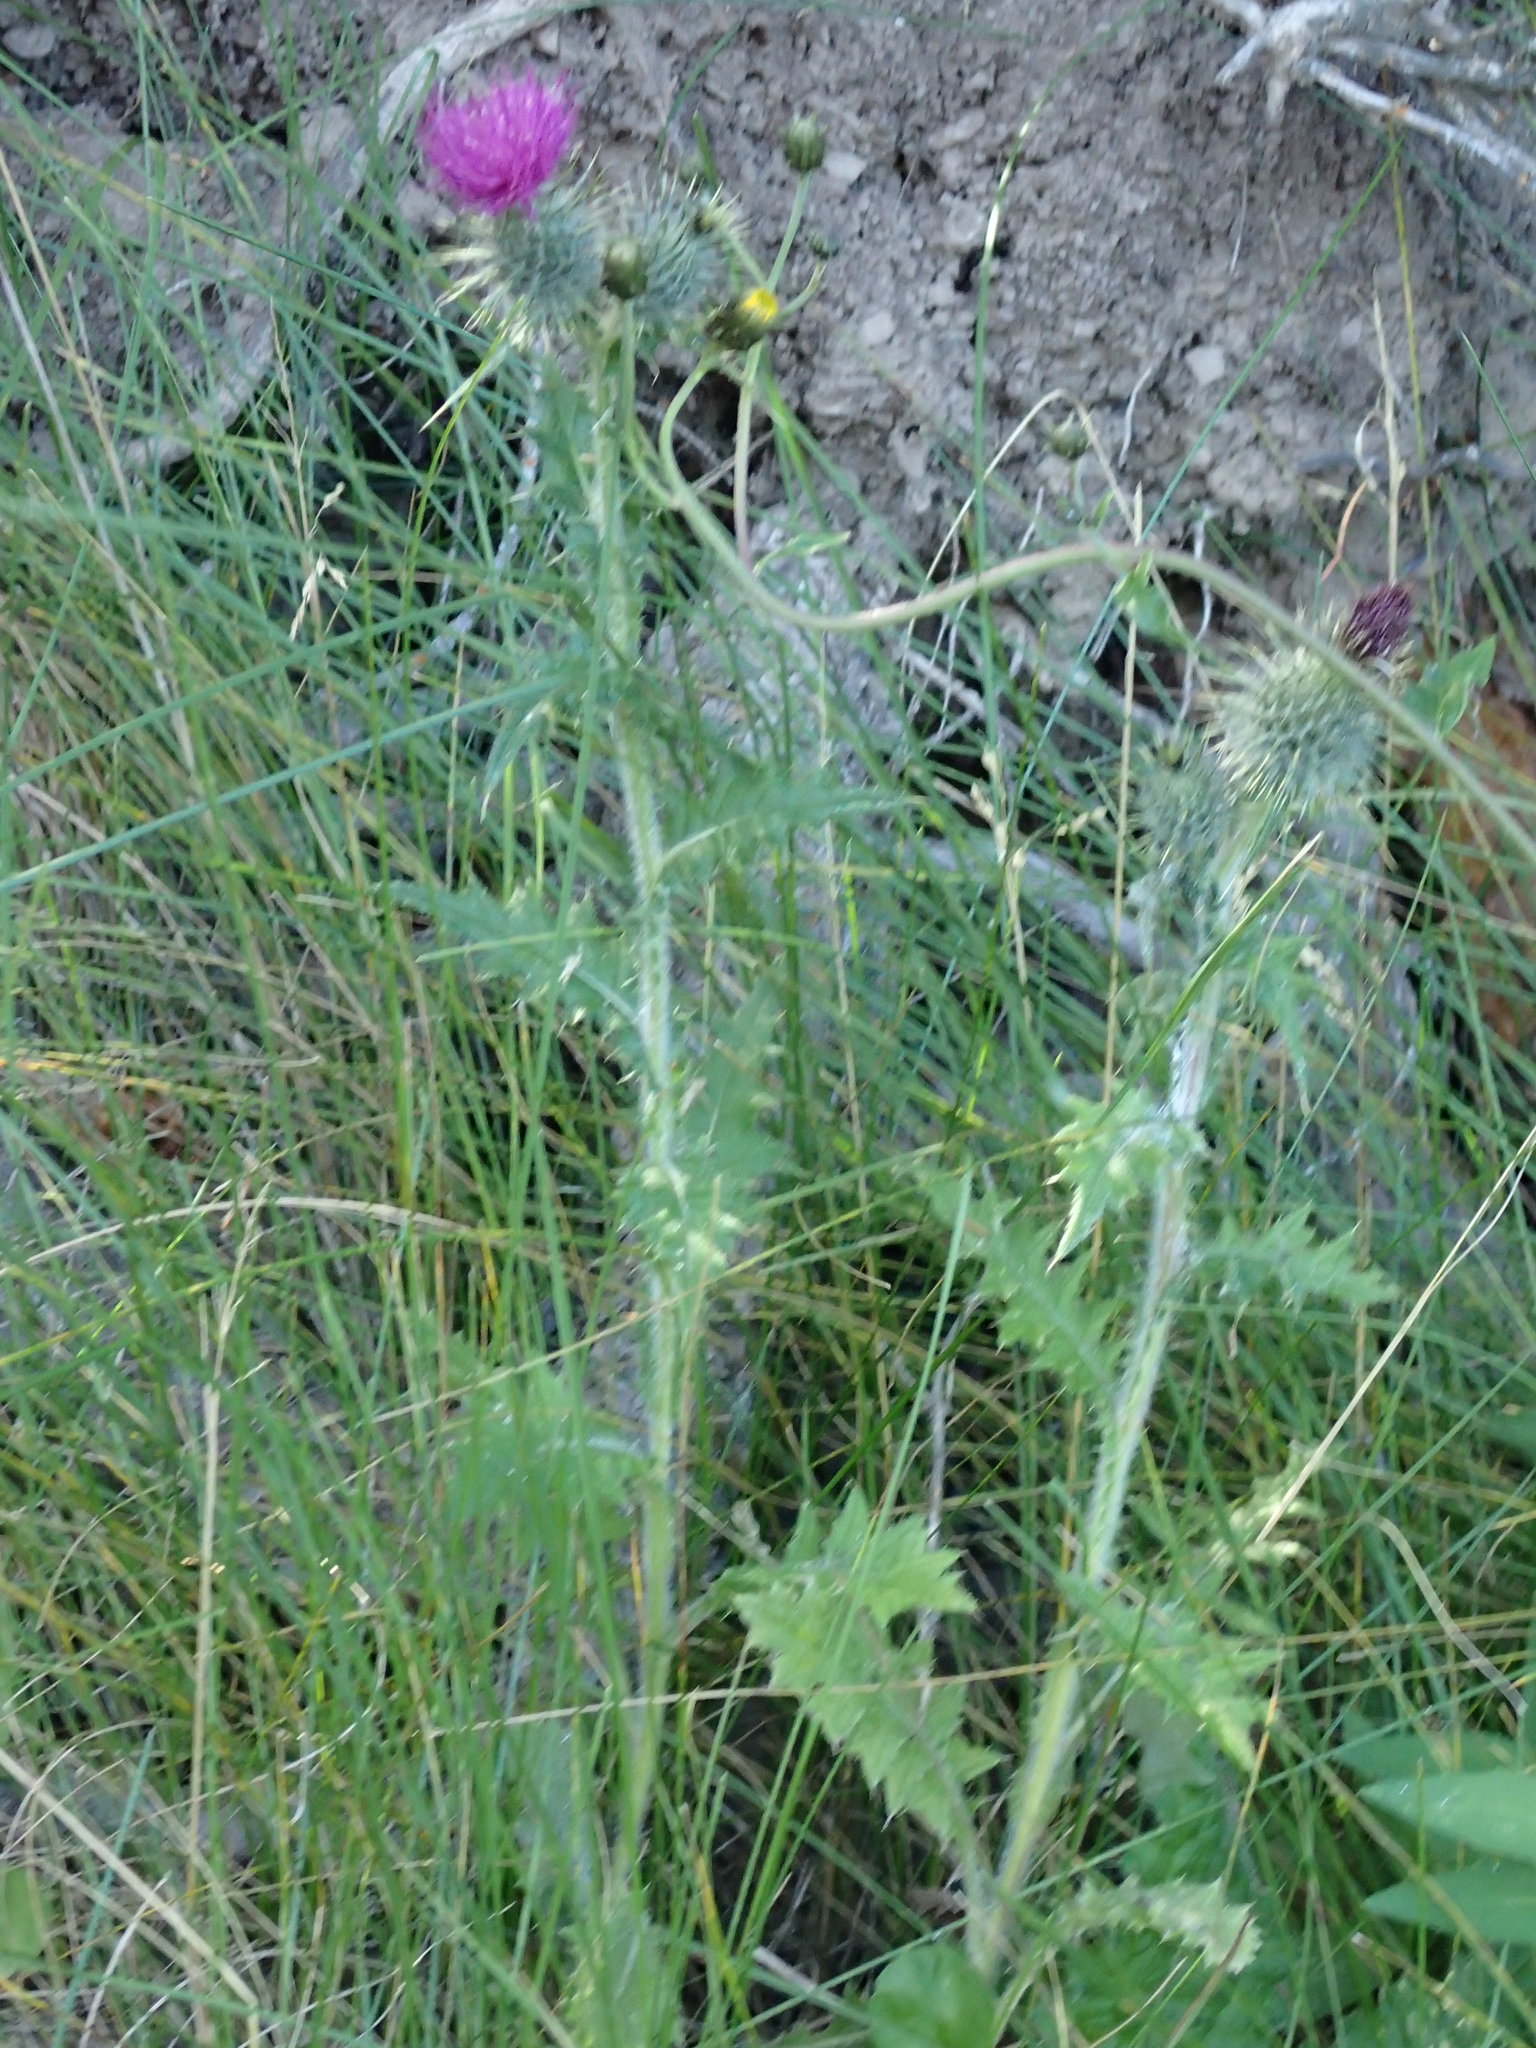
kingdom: Plantae
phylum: Tracheophyta
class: Magnoliopsida
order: Asterales
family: Asteraceae
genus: Cirsium
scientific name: Cirsium vulgare
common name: Bull thistle
